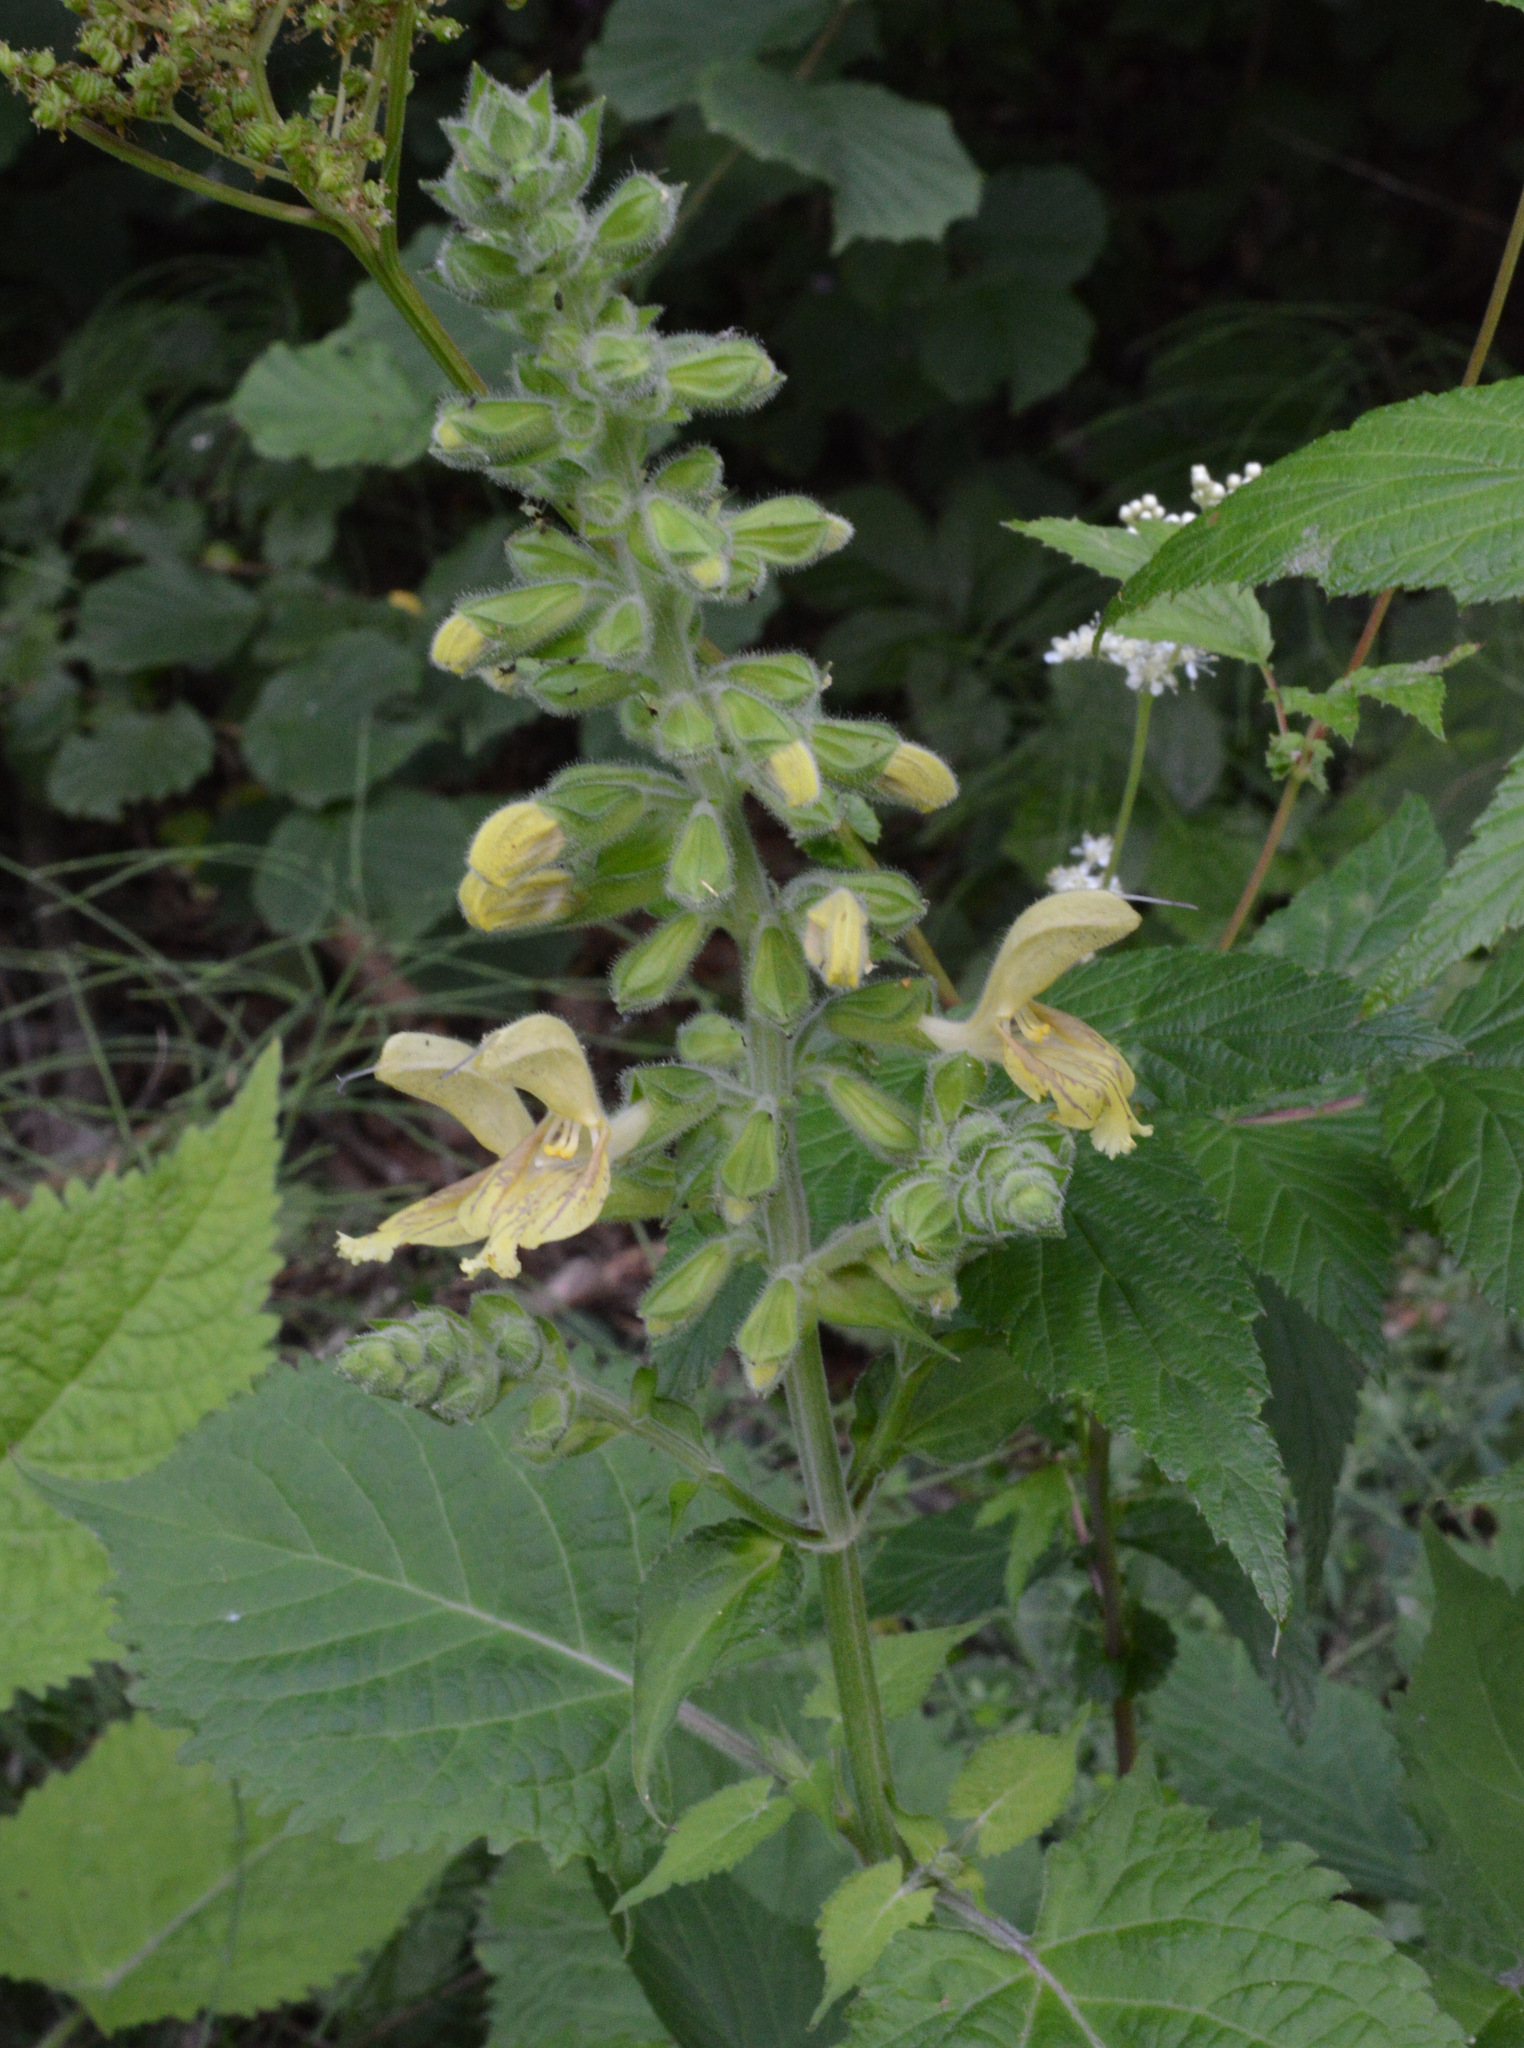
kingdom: Plantae
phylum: Tracheophyta
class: Magnoliopsida
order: Lamiales
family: Lamiaceae
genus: Salvia
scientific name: Salvia glutinosa
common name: Sticky clary
